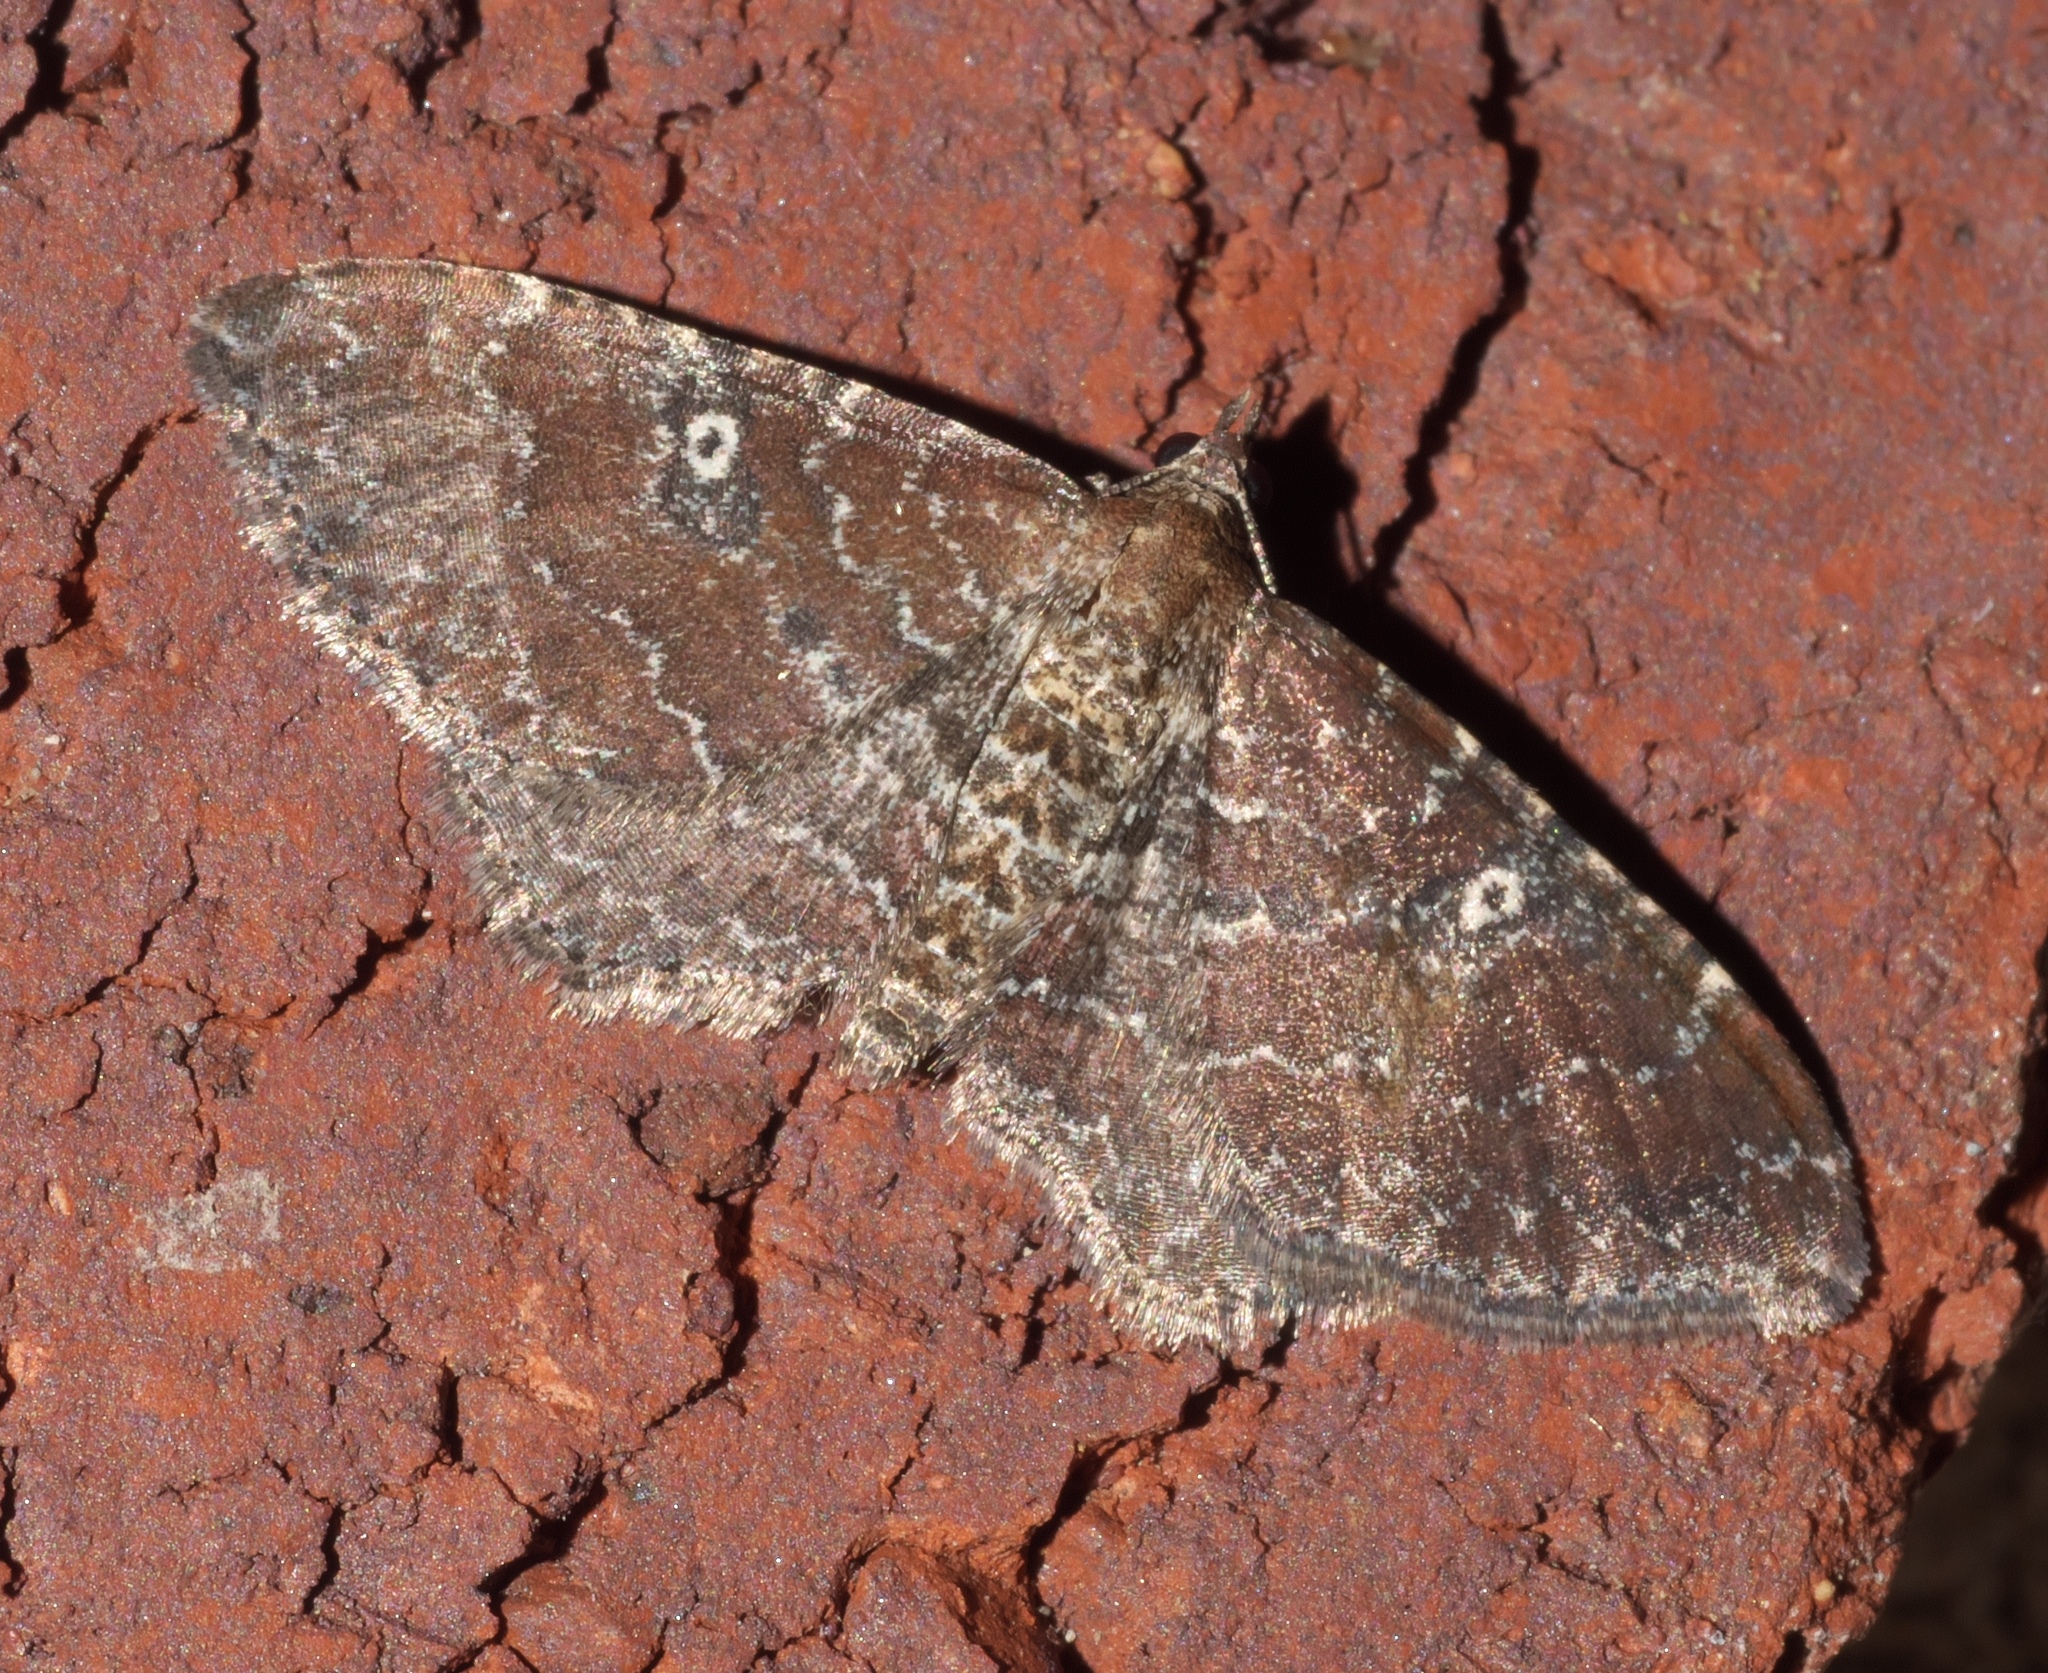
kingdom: Animalia
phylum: Arthropoda
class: Insecta
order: Lepidoptera
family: Geometridae
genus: Orthonama
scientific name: Orthonama obstipata
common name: The gem
